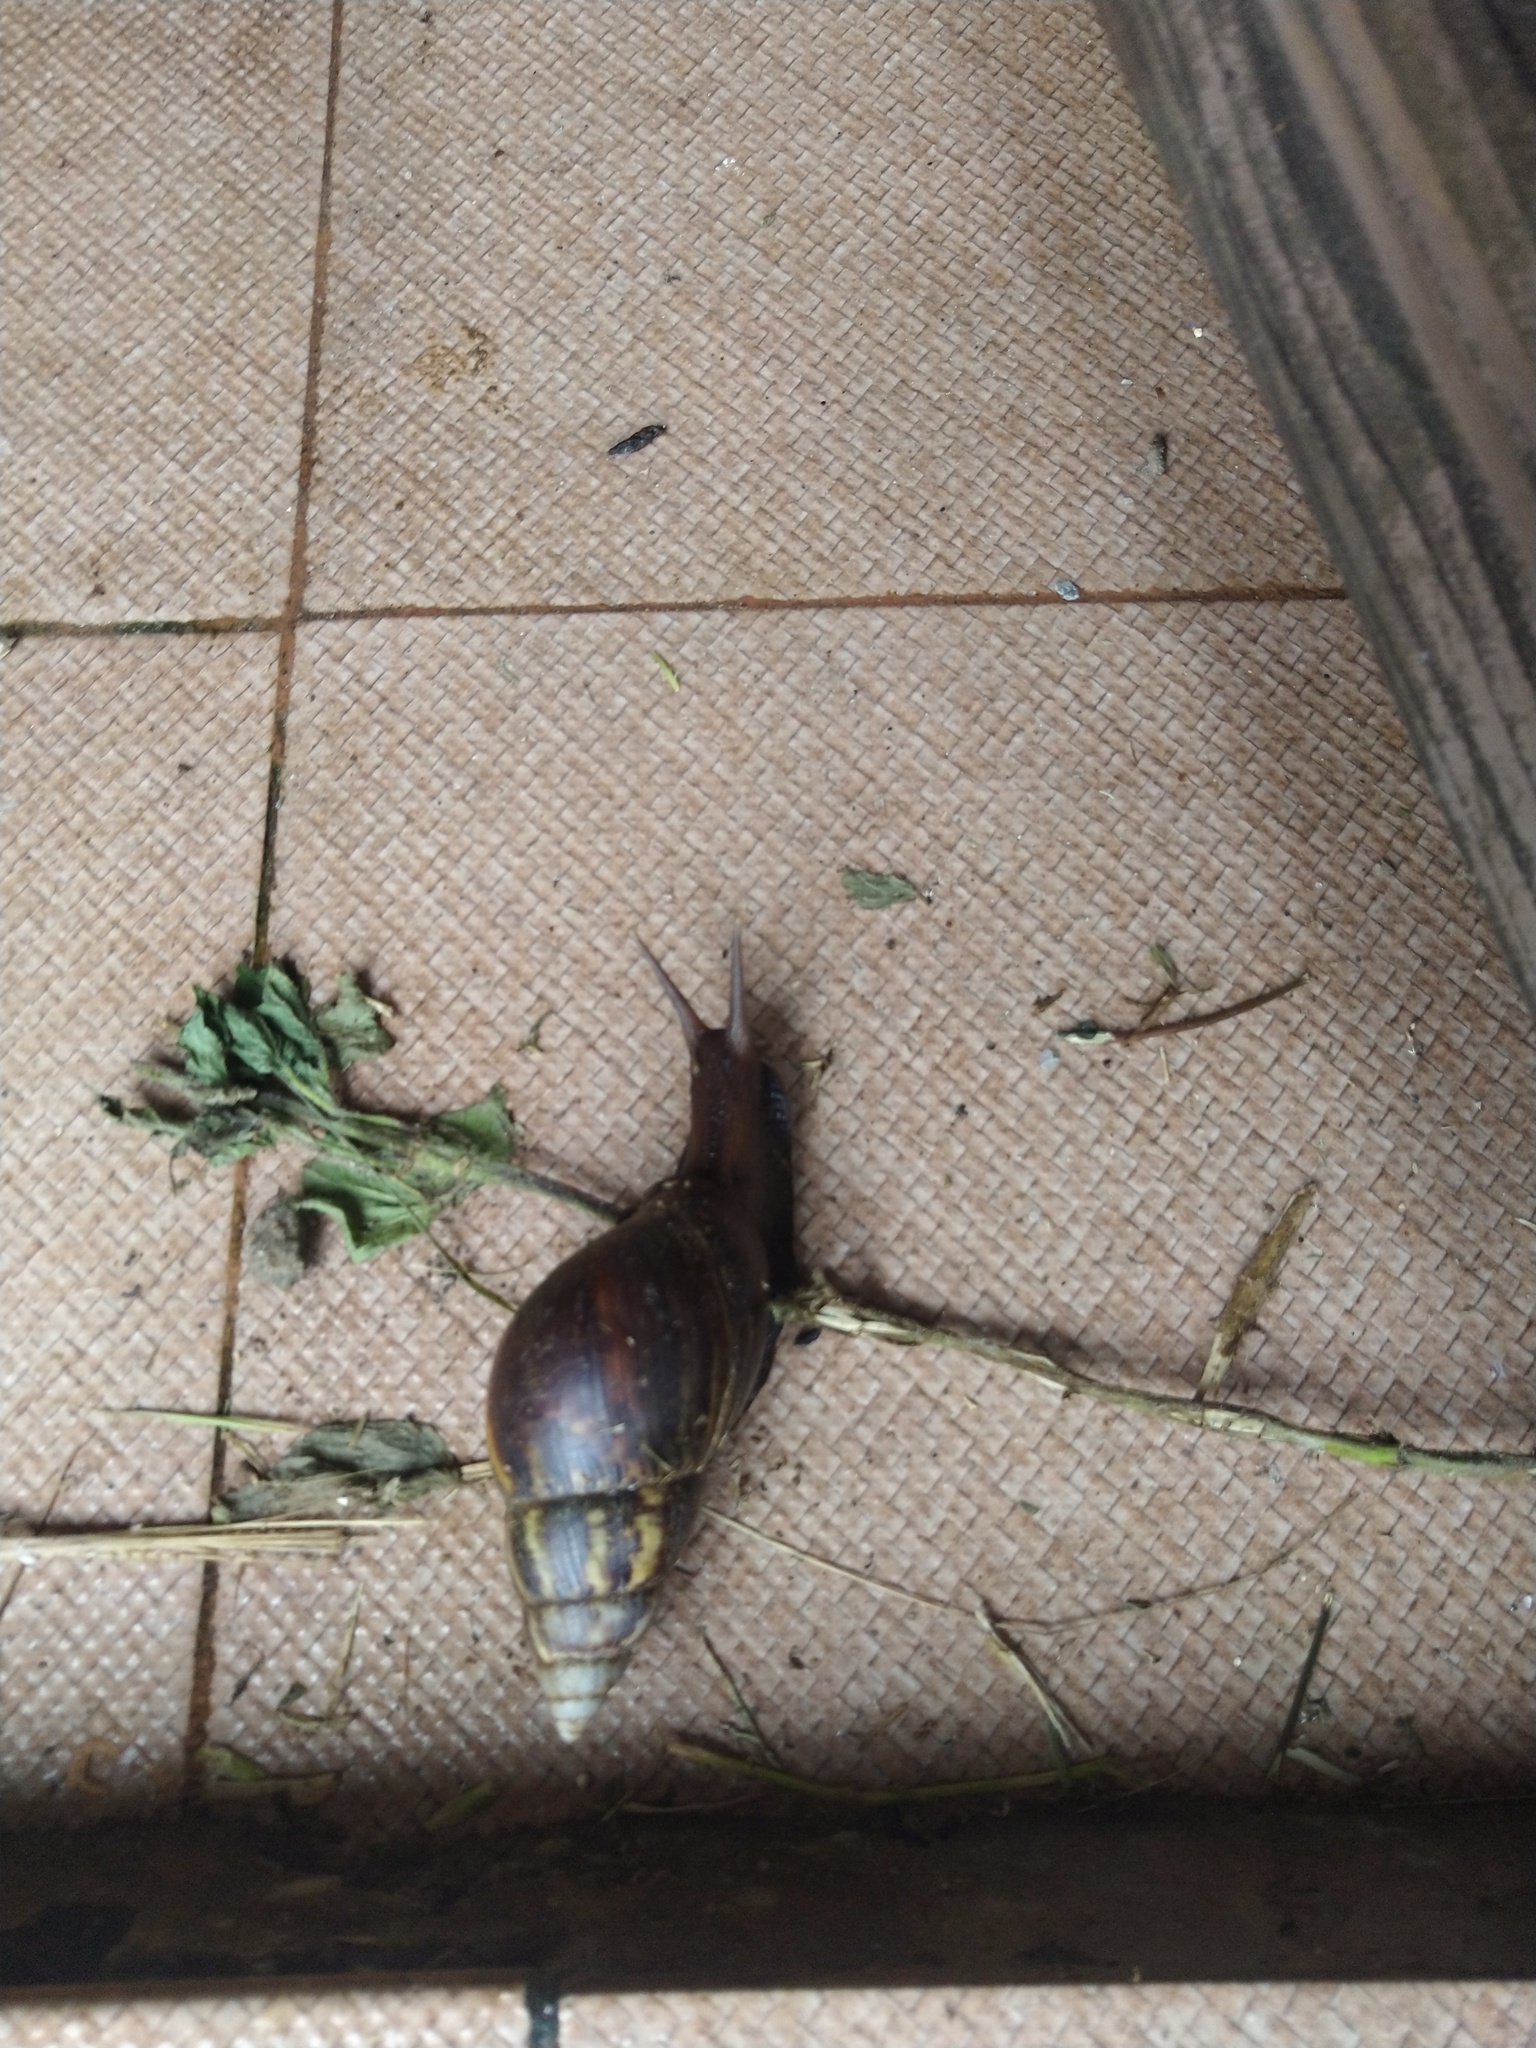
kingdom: Animalia
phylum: Mollusca
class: Gastropoda
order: Stylommatophora
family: Achatinidae
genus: Lissachatina
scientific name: Lissachatina fulica
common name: Giant african snail
